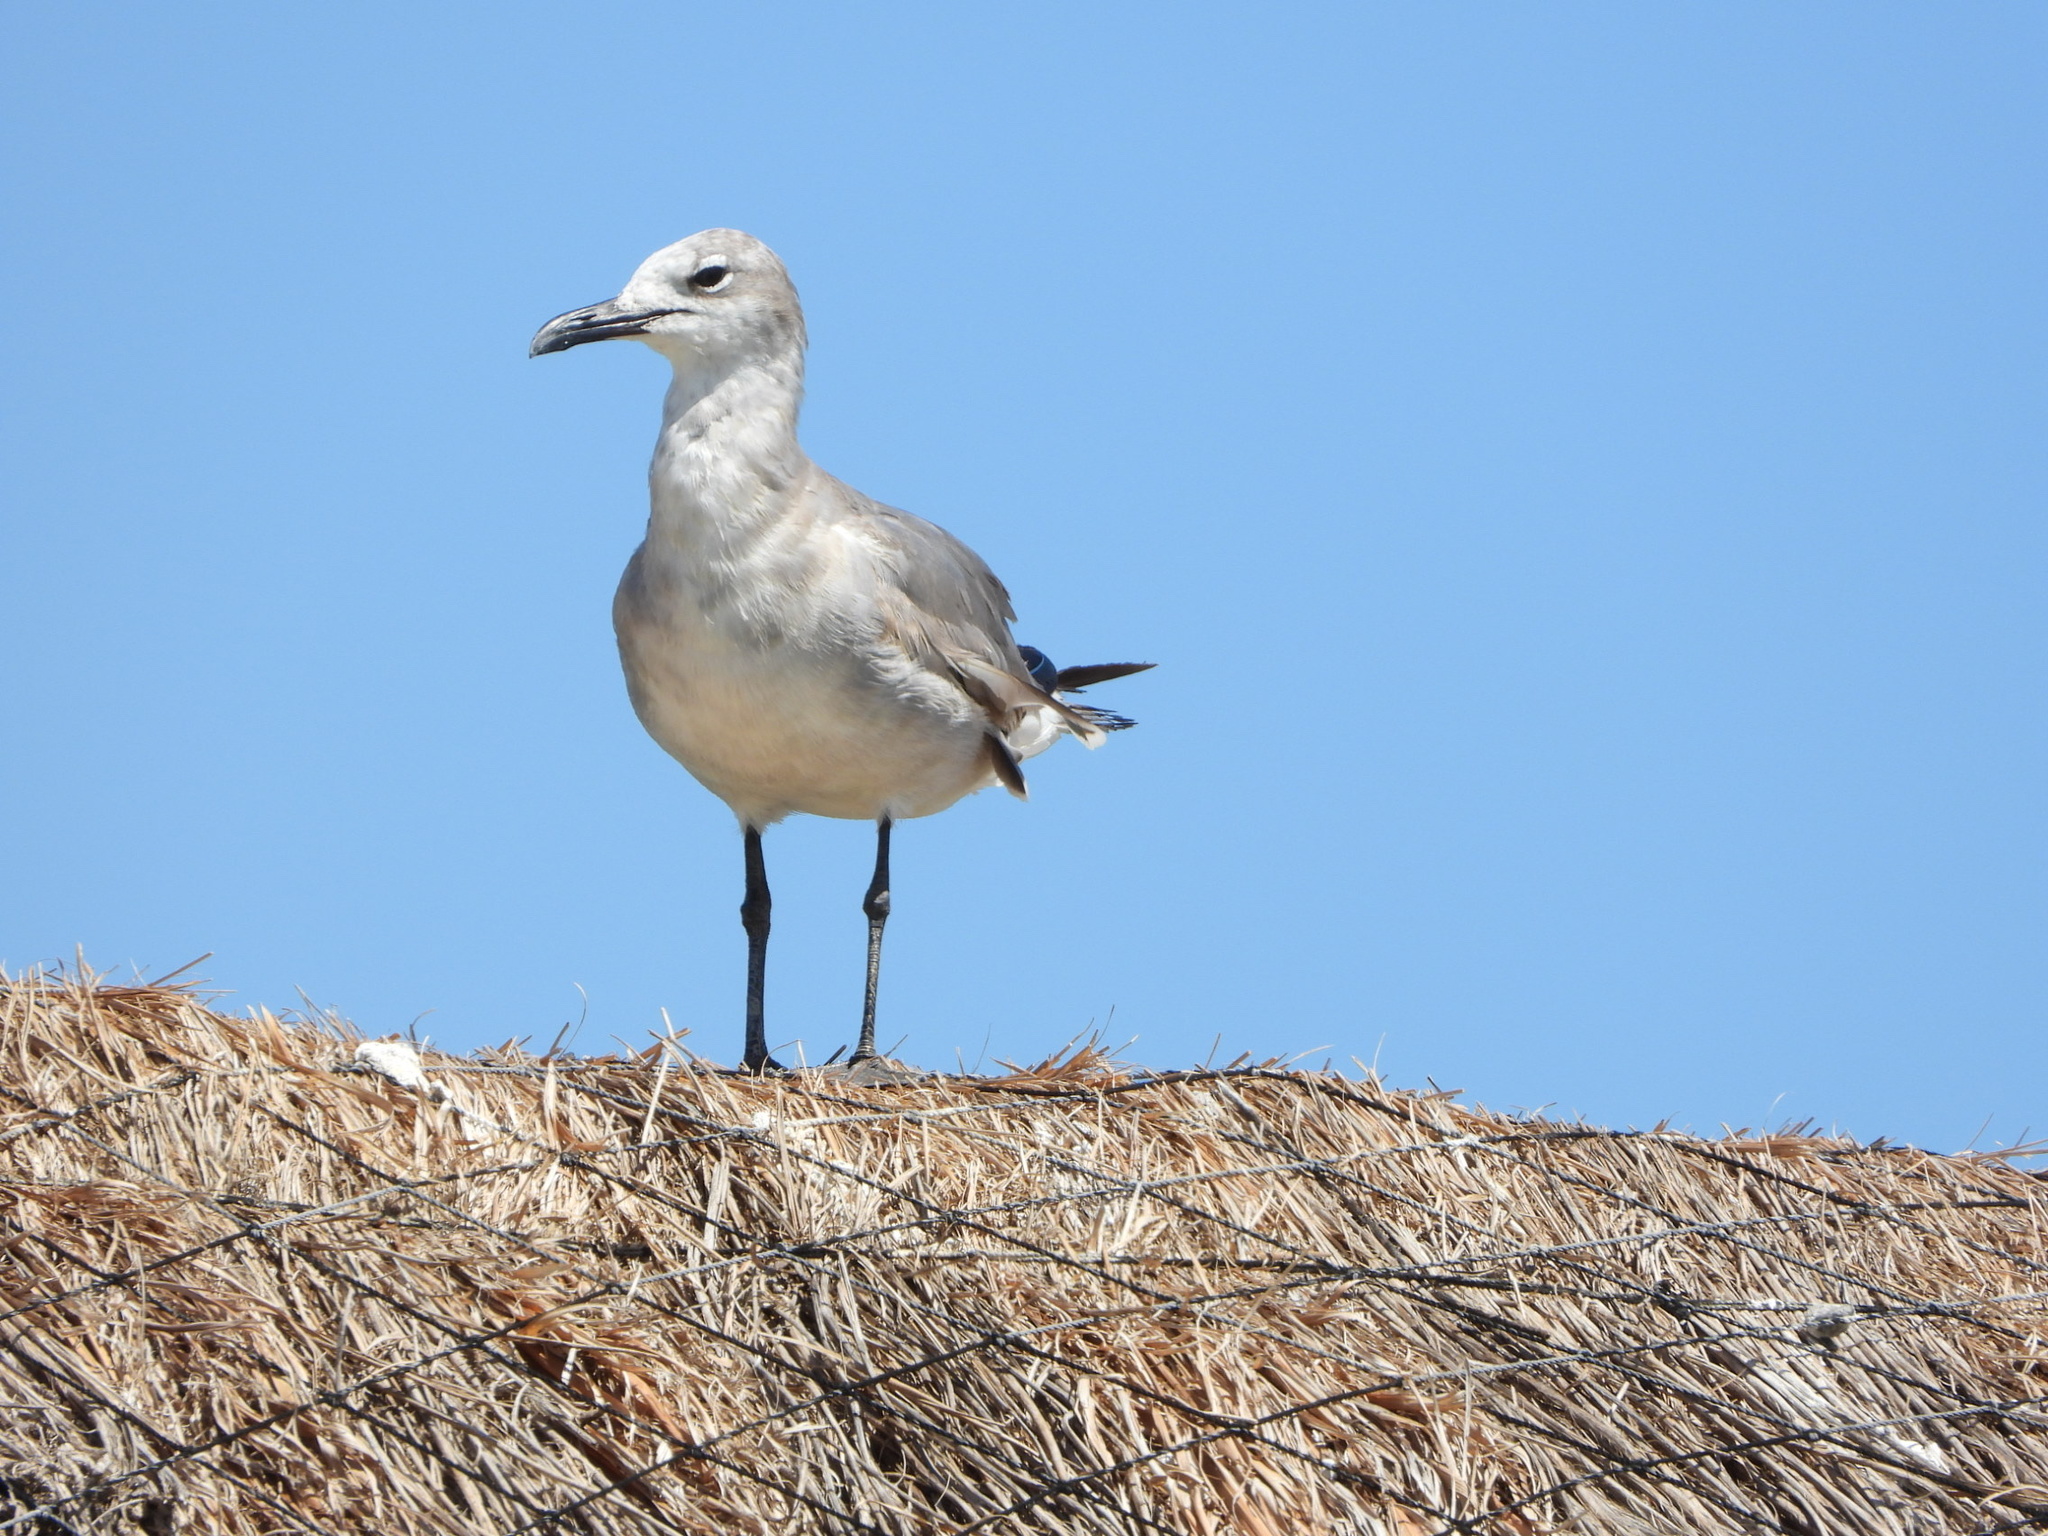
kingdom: Animalia
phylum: Chordata
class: Aves
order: Charadriiformes
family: Laridae
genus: Leucophaeus
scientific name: Leucophaeus atricilla
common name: Laughing gull
